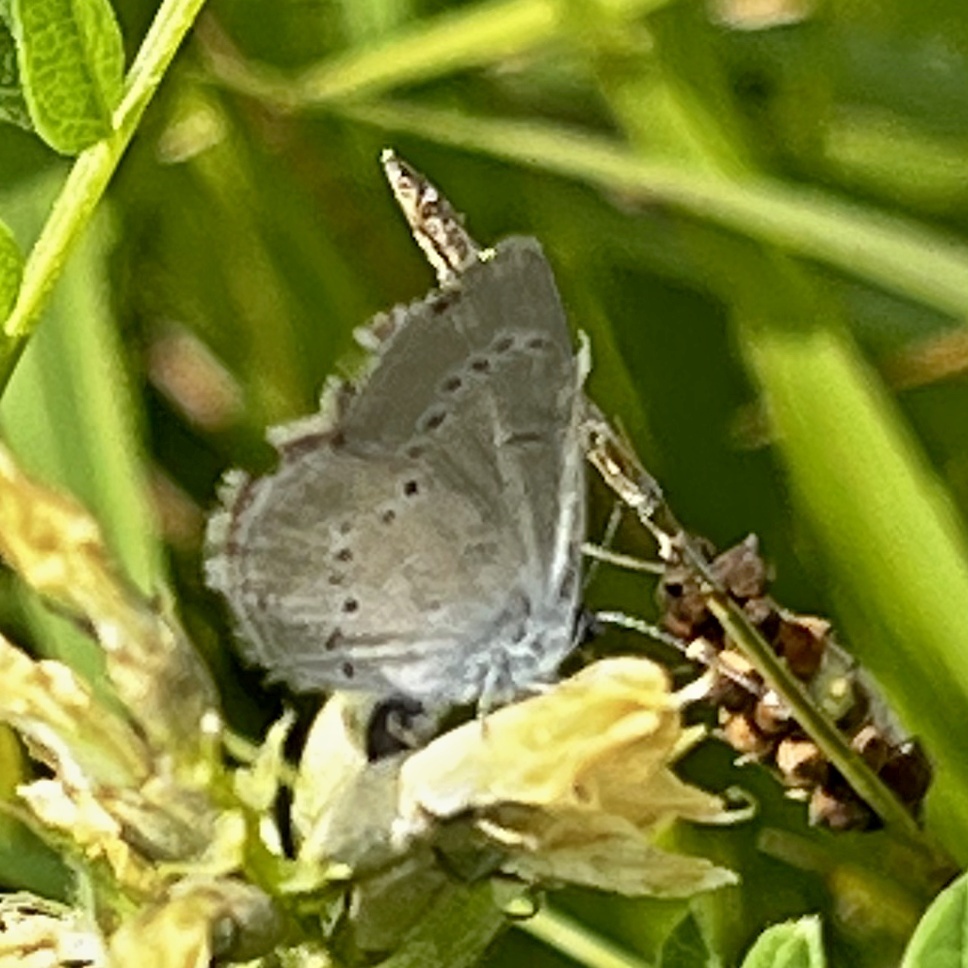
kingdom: Animalia
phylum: Arthropoda
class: Insecta
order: Lepidoptera
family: Lycaenidae
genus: Cupido
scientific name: Cupido minimus
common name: Small blue
